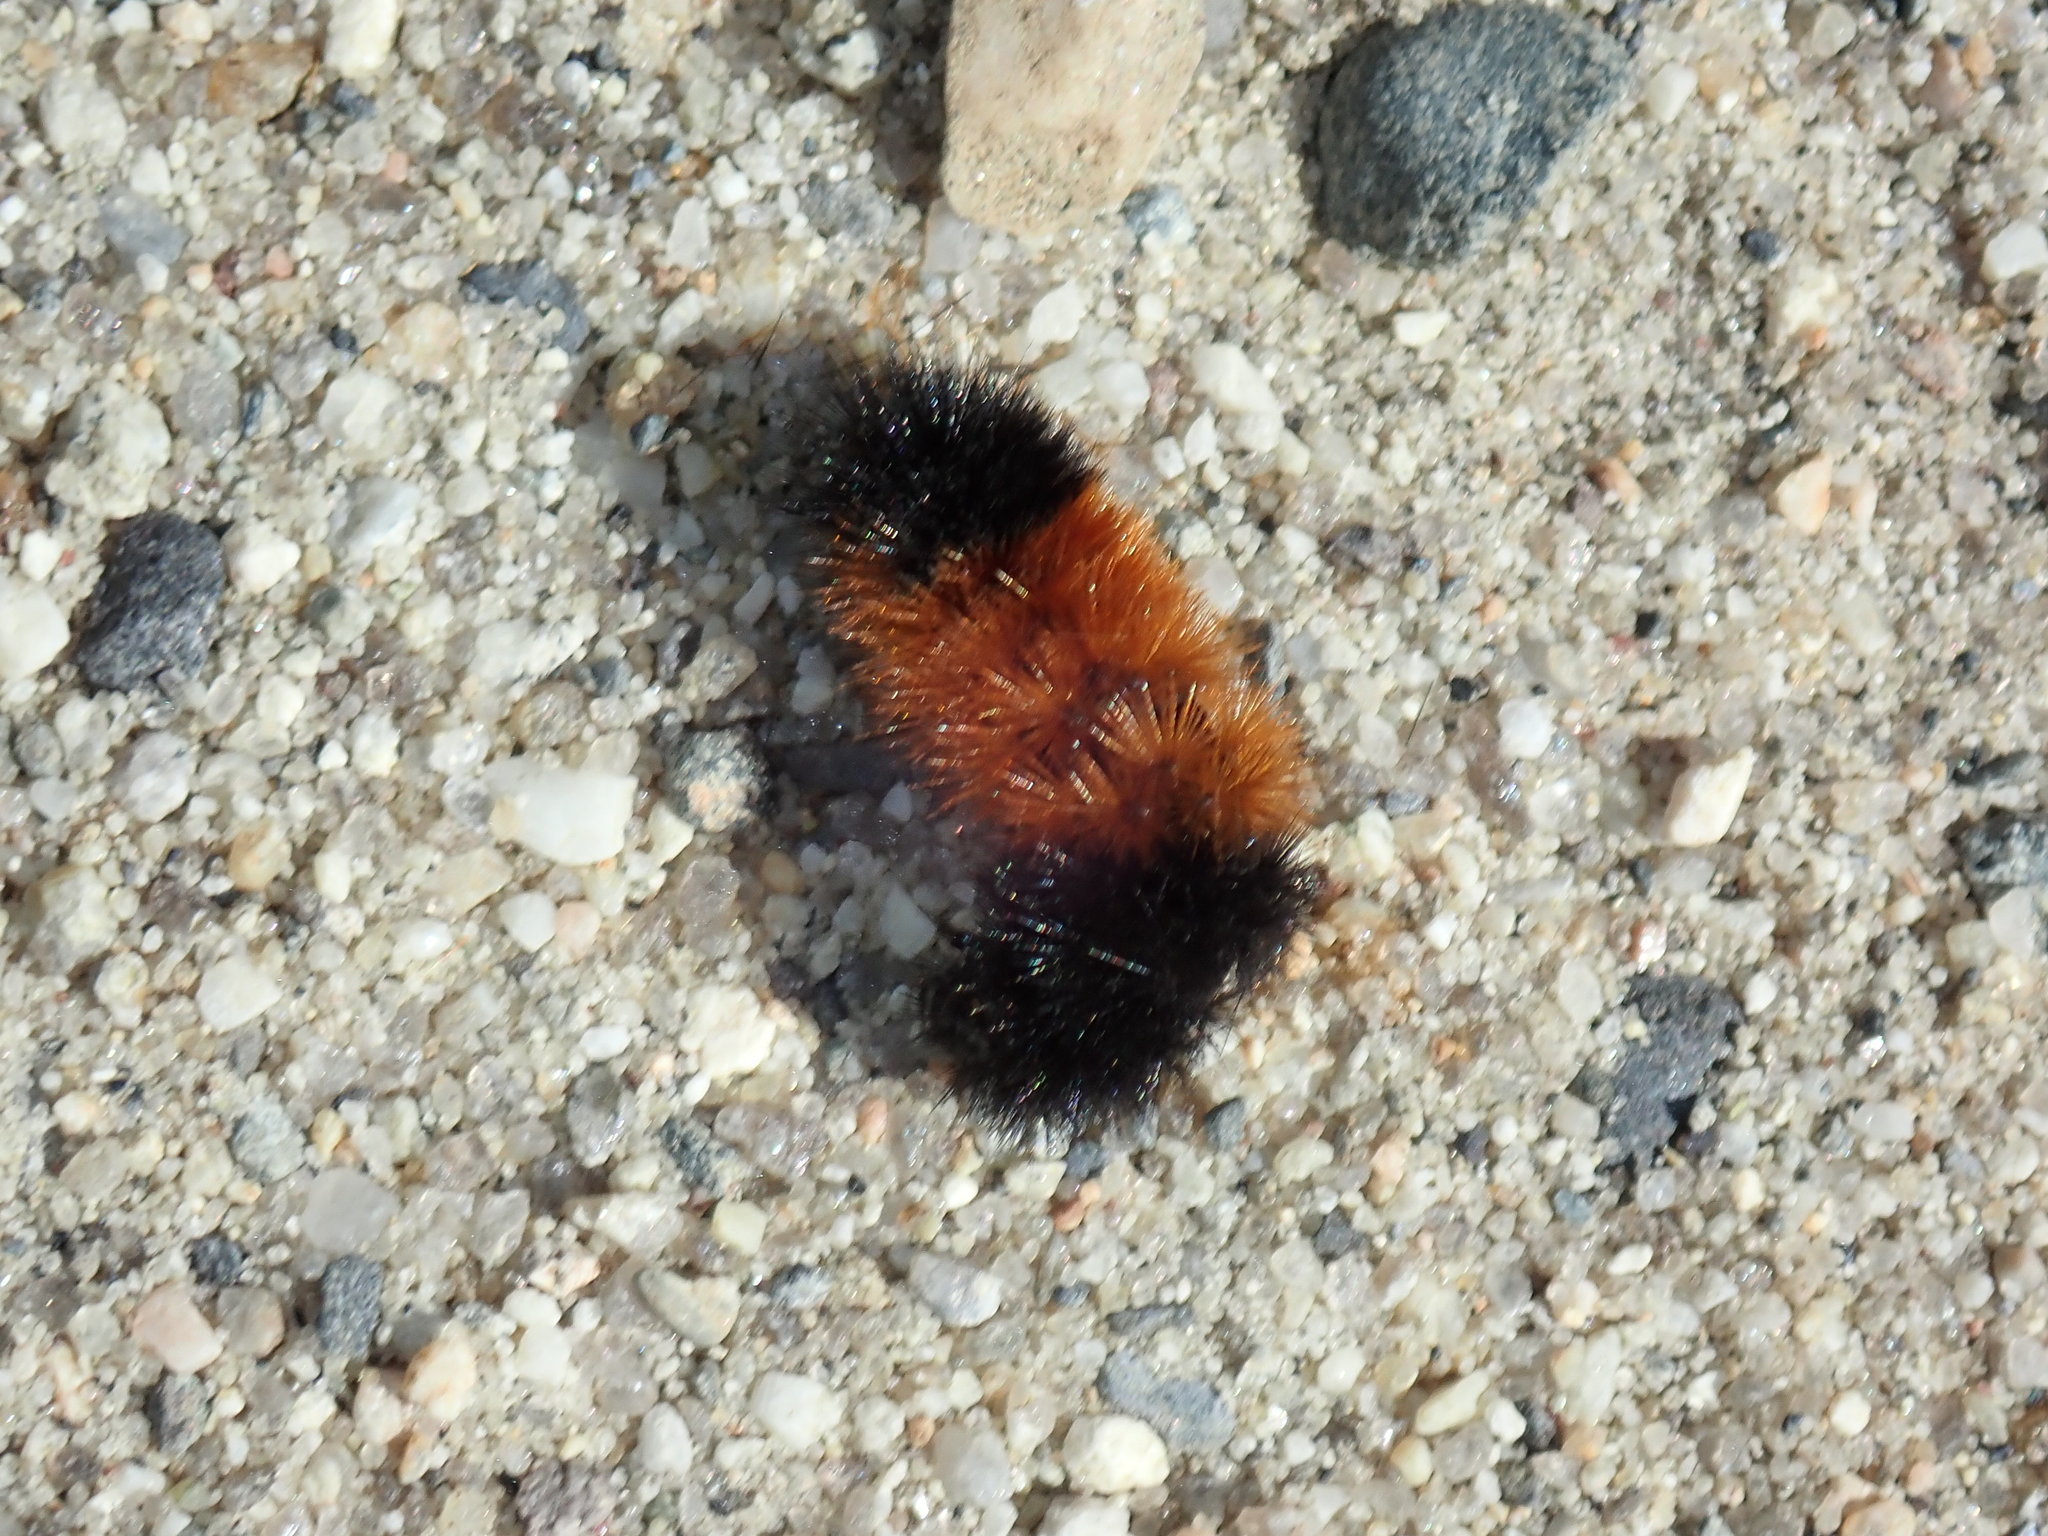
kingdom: Animalia
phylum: Arthropoda
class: Insecta
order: Lepidoptera
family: Erebidae
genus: Pyrrharctia
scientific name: Pyrrharctia isabella
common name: Isabella tiger moth
